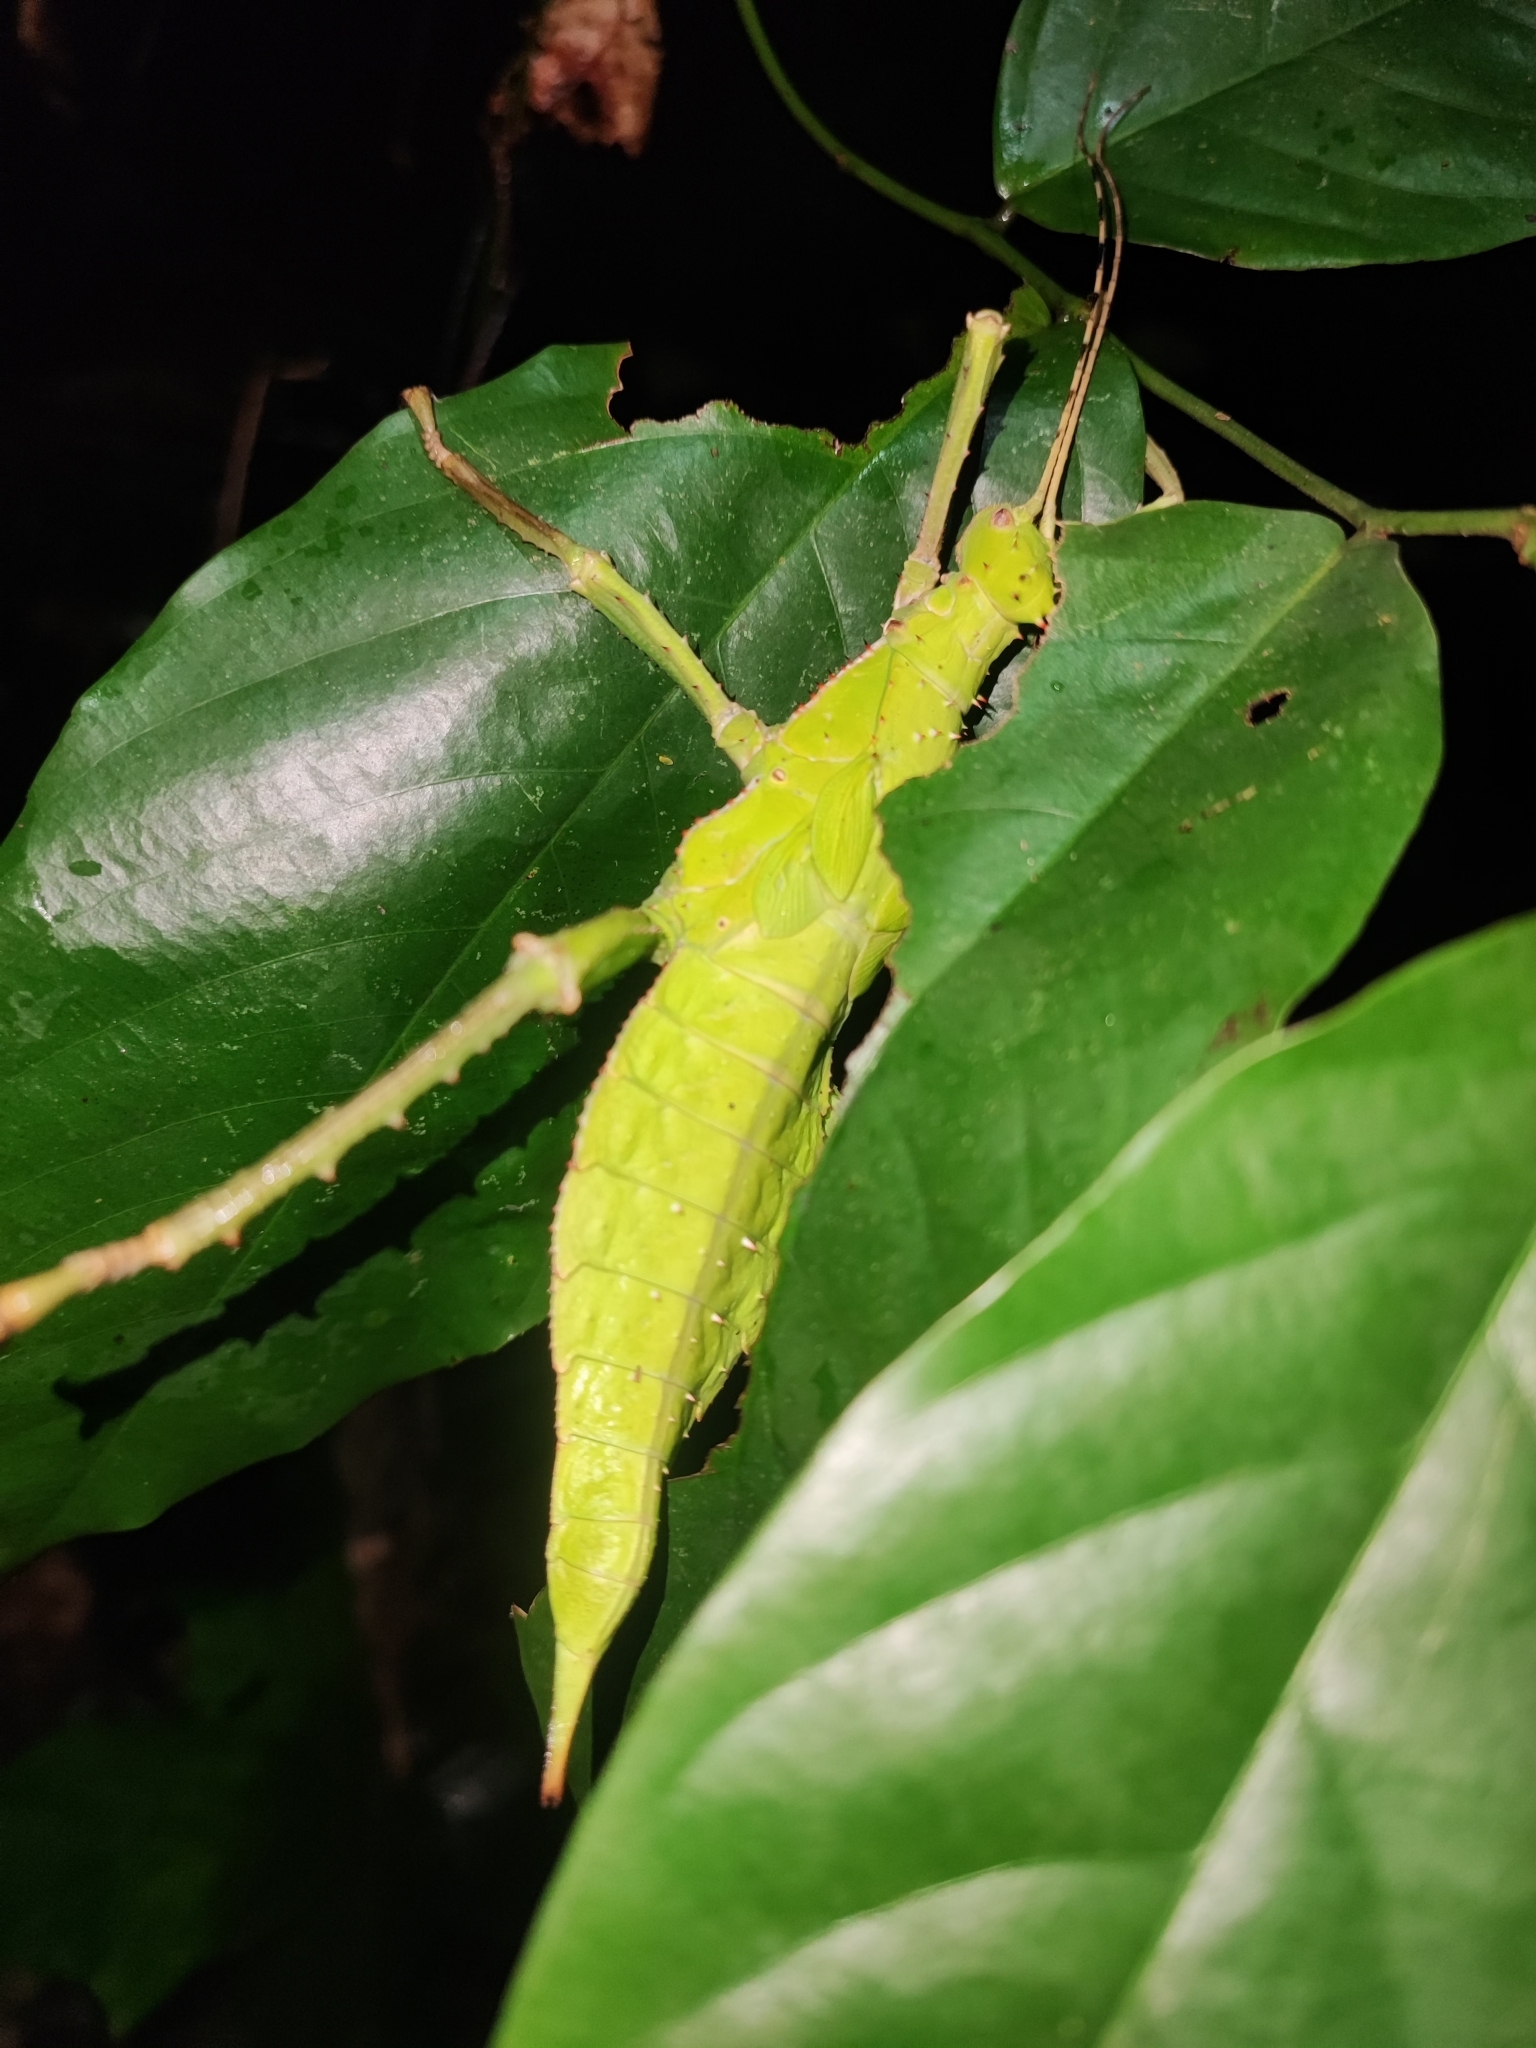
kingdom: Animalia
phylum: Arthropoda
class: Insecta
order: Phasmida
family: Heteropterygidae
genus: Heteropteryx
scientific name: Heteropteryx dilatata
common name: Jungle nymph
